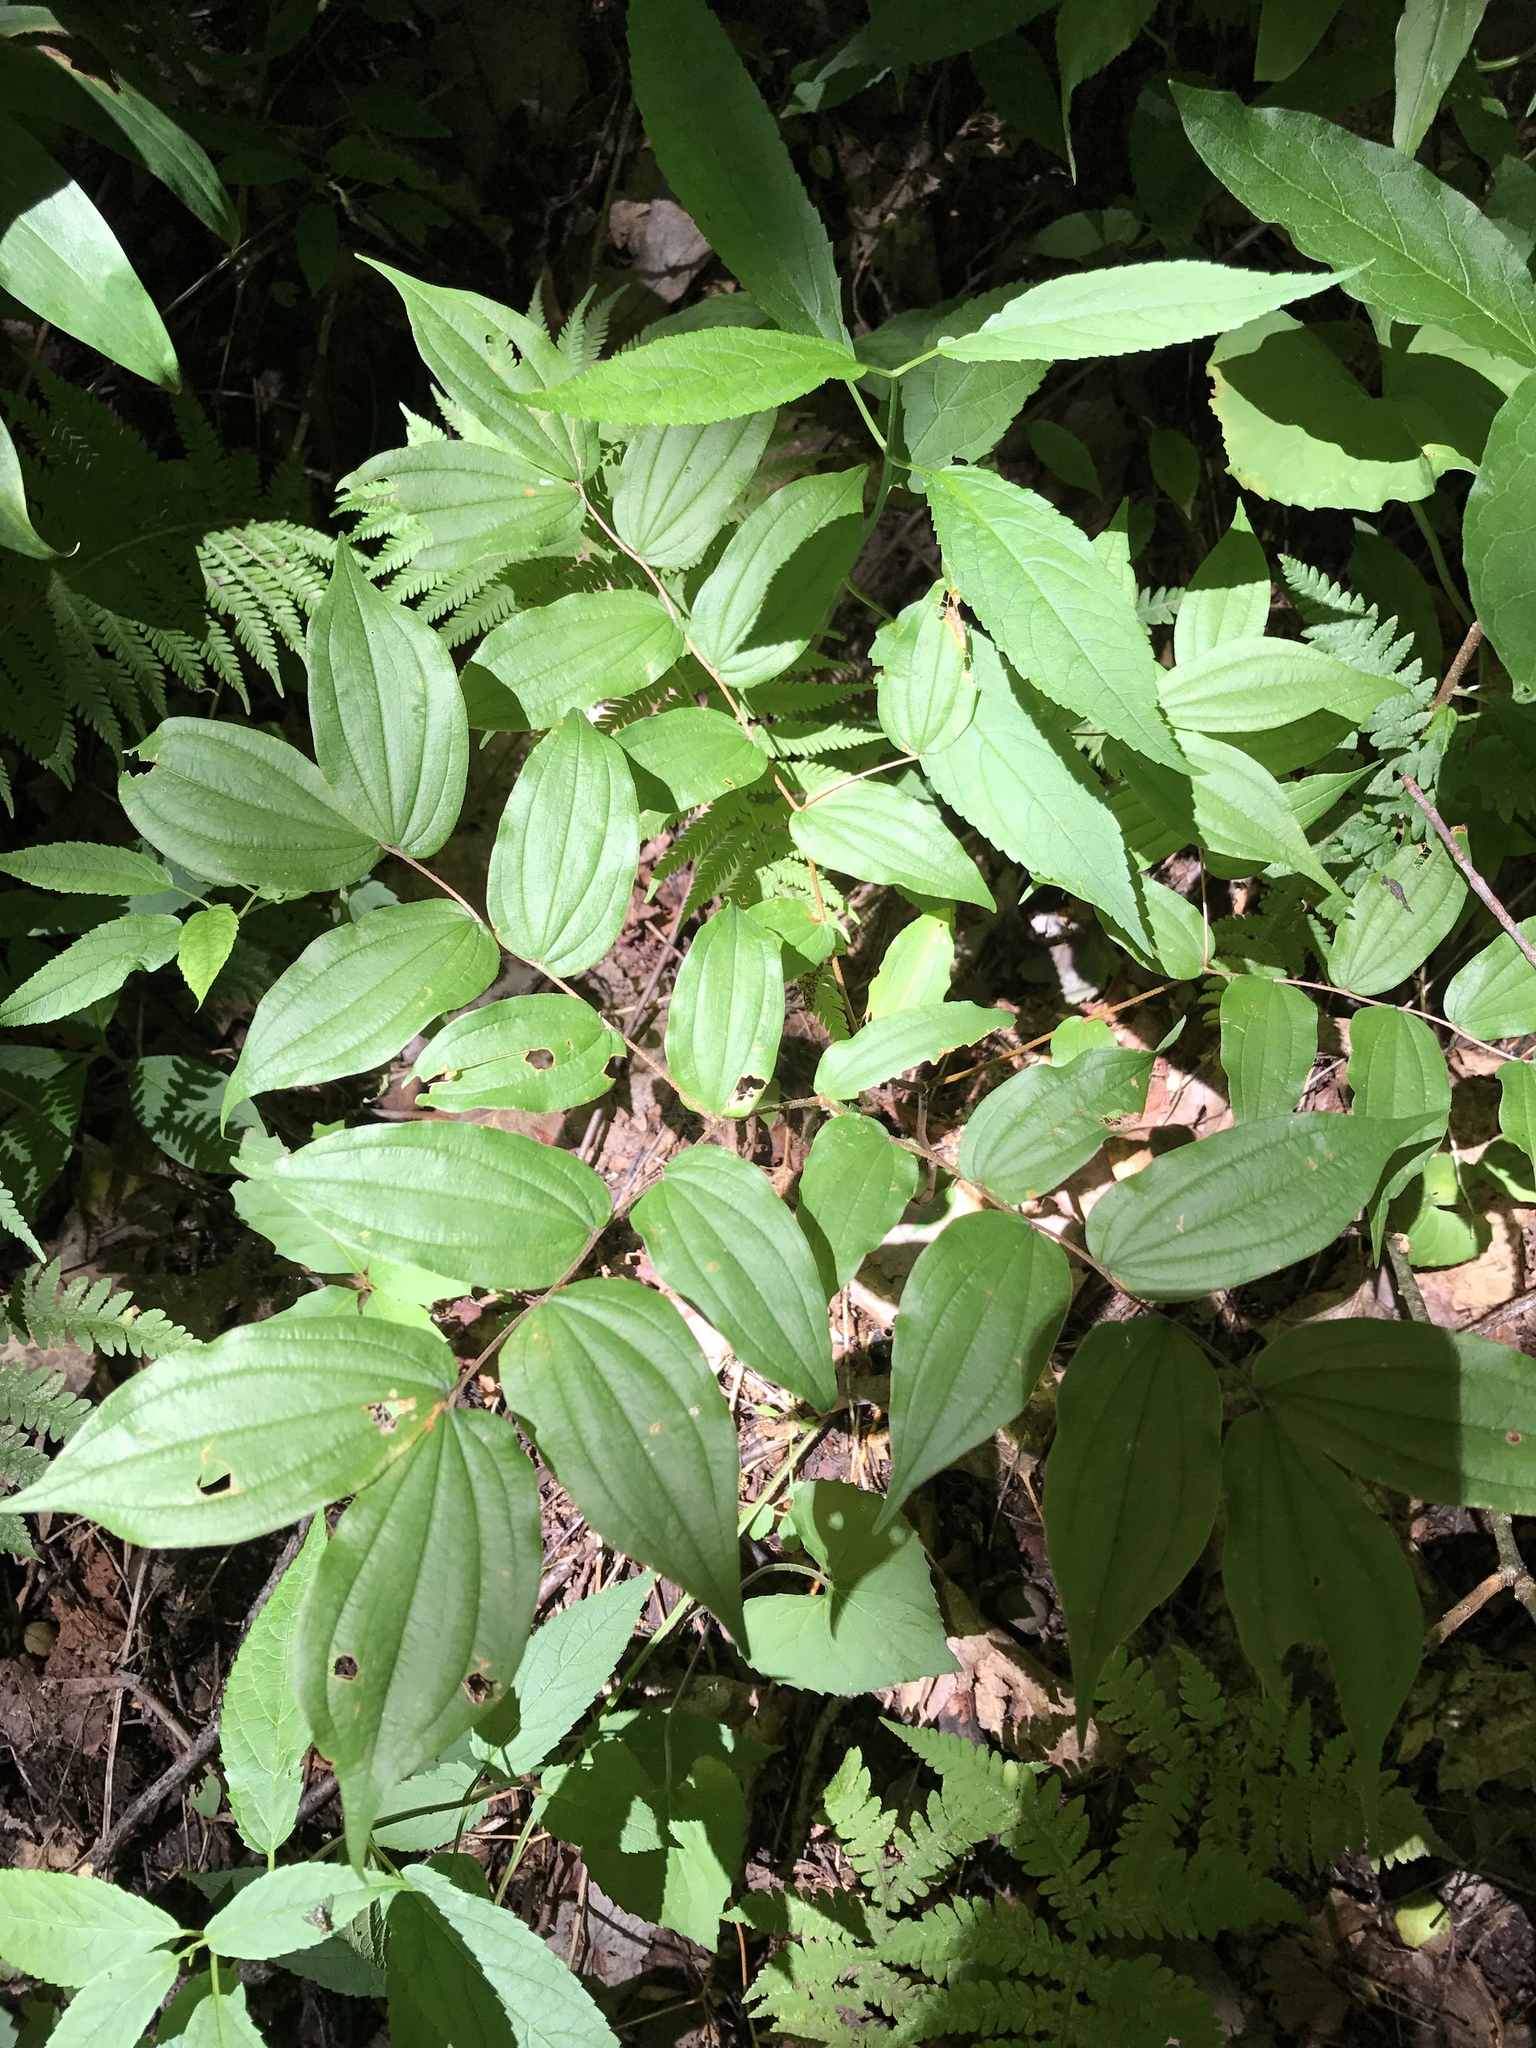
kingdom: Plantae
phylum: Tracheophyta
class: Liliopsida
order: Liliales
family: Liliaceae
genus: Prosartes
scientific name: Prosartes lanuginosa
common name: Hairy mandarin
